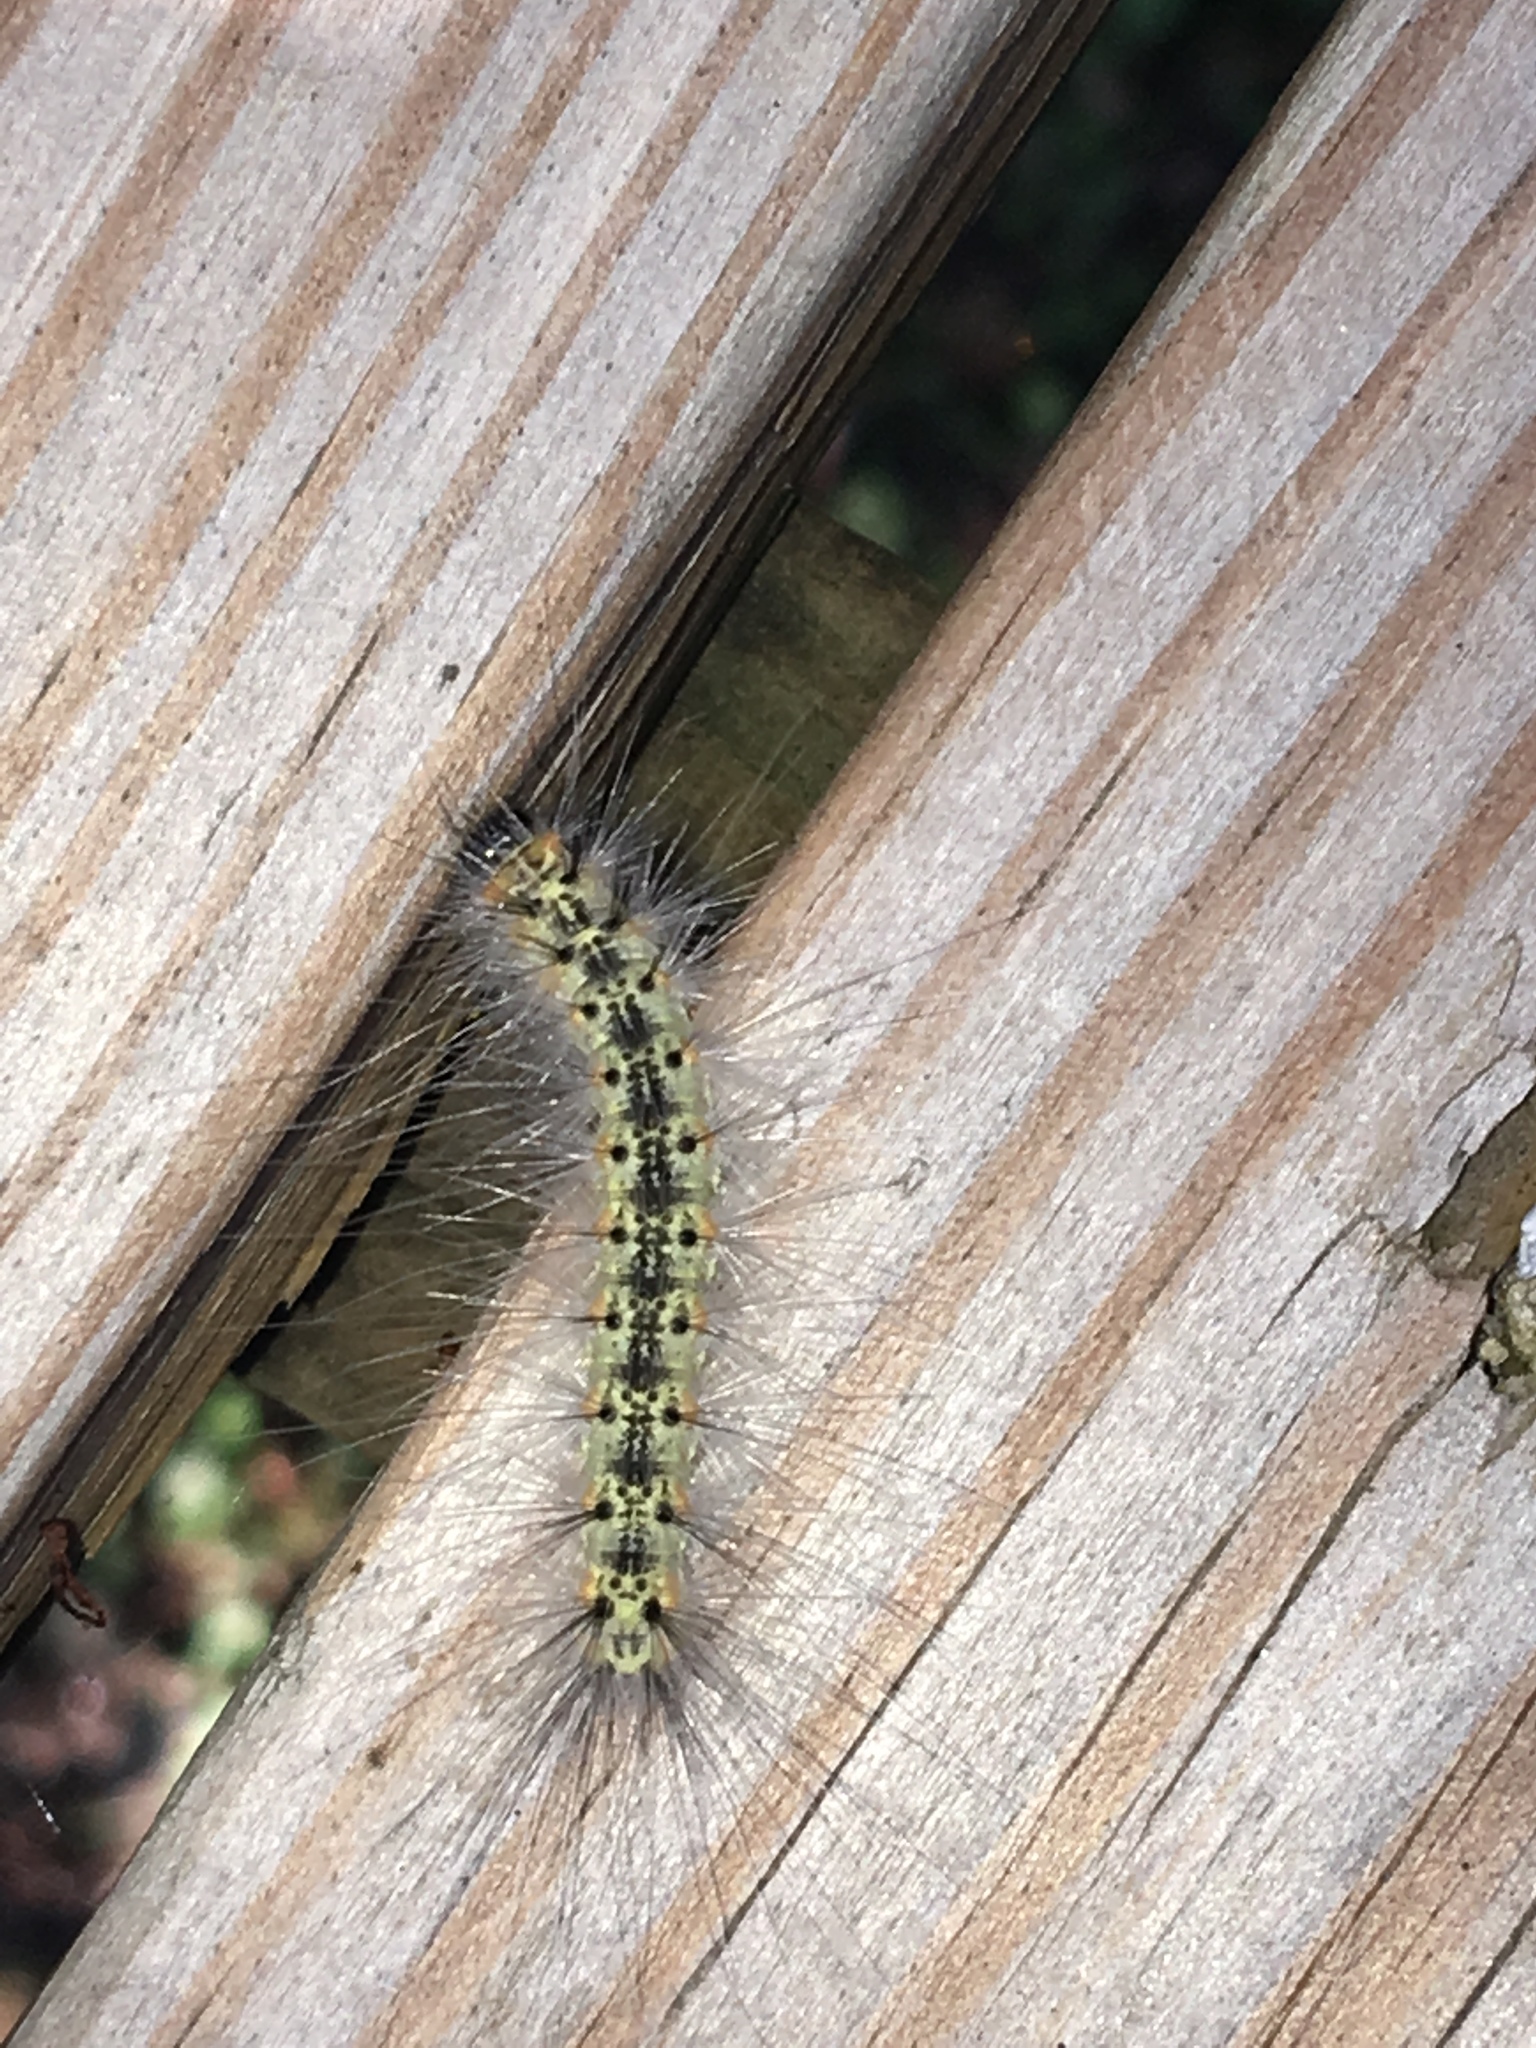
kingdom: Animalia
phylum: Arthropoda
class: Insecta
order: Lepidoptera
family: Erebidae
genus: Hyphantria
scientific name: Hyphantria cunea
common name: American white moth
